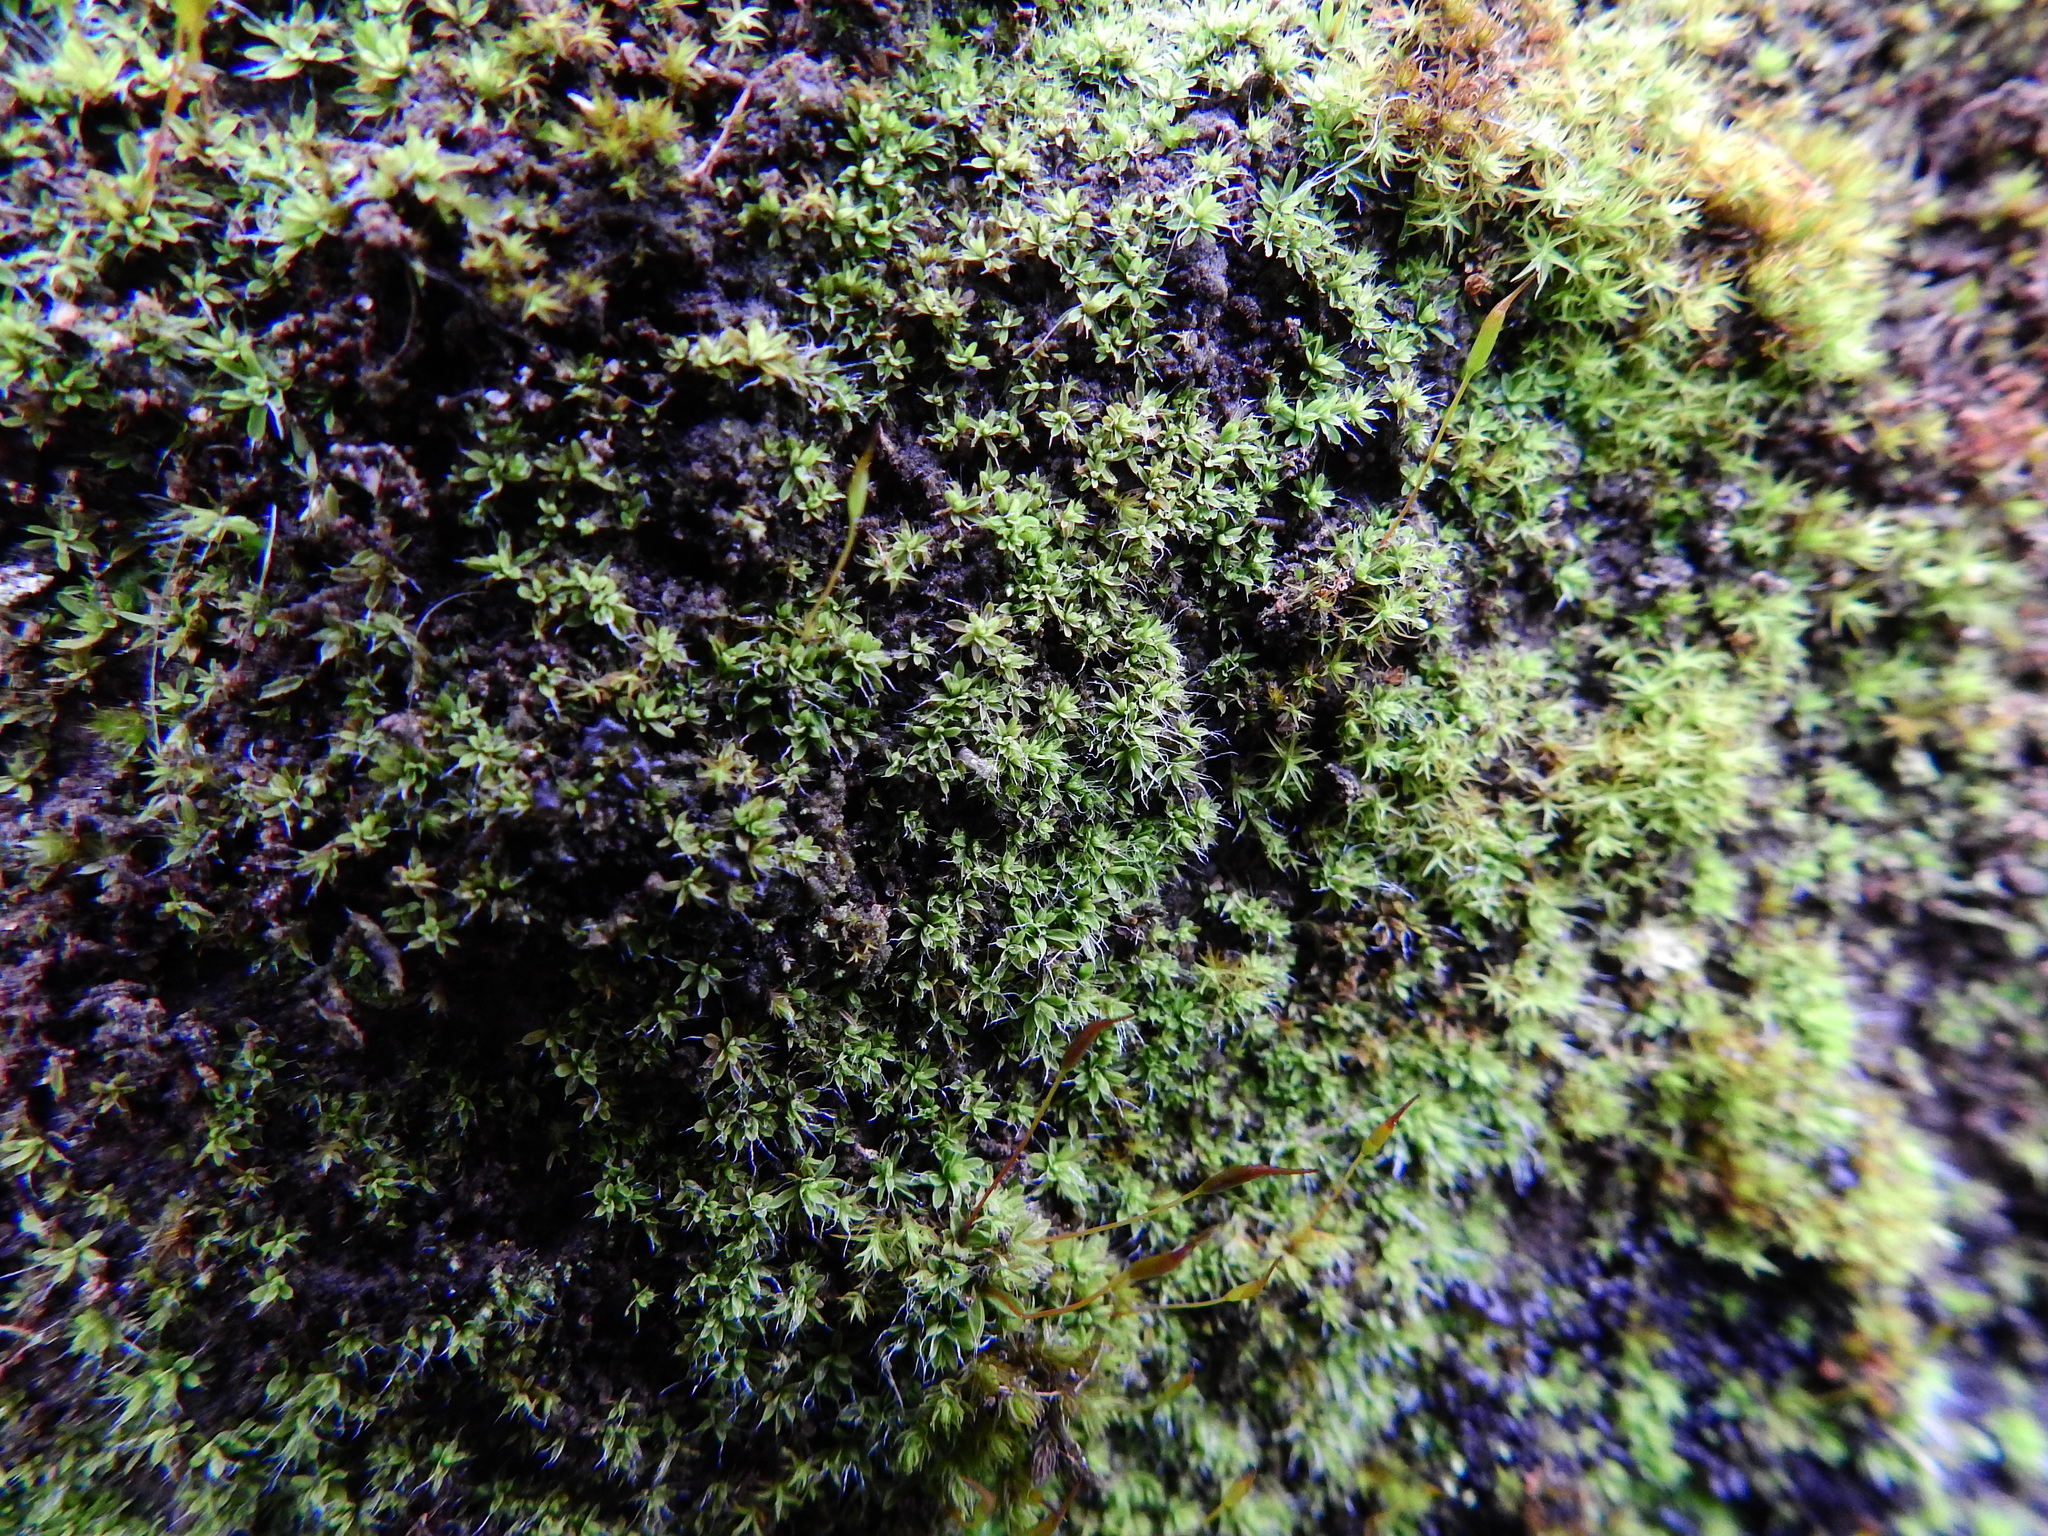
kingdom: Plantae
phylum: Bryophyta
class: Bryopsida
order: Pottiales
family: Pottiaceae
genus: Tortula
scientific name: Tortula muralis
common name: Wall screw-moss
